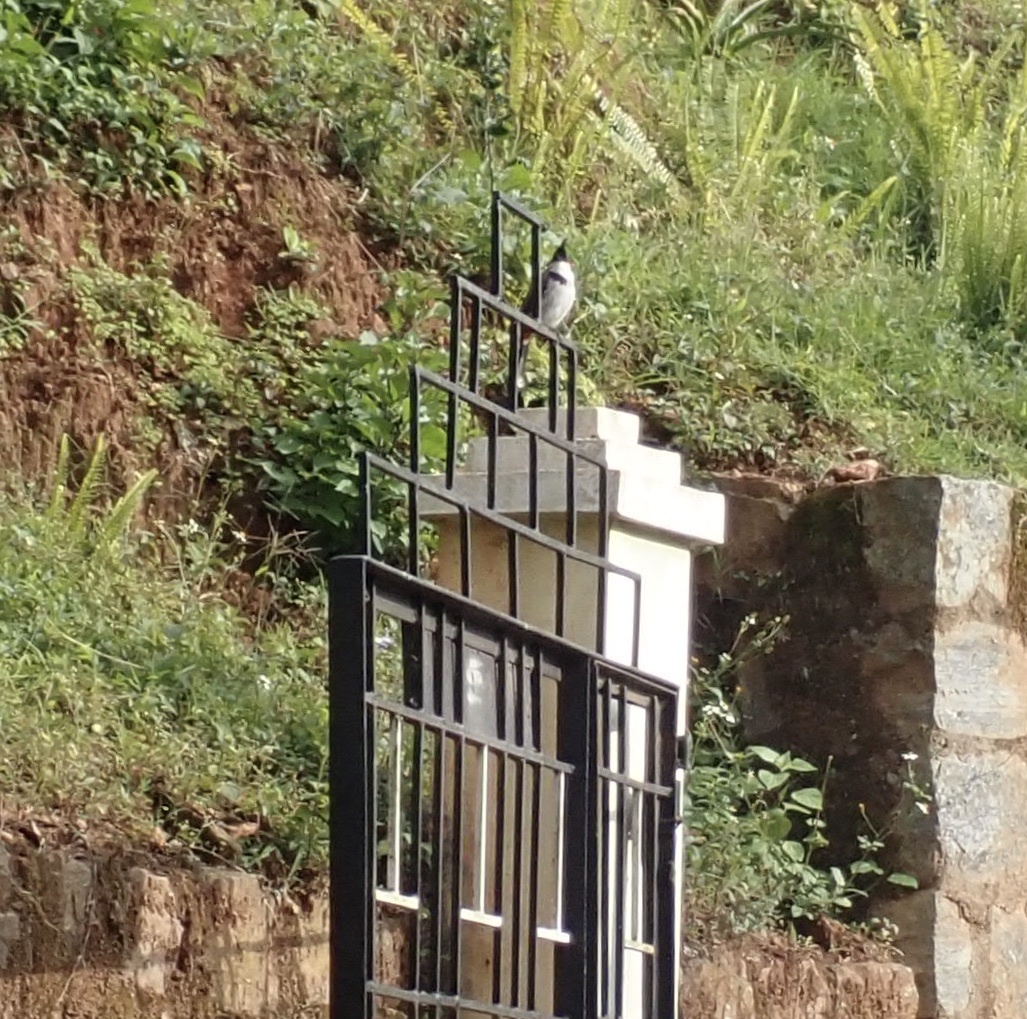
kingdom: Animalia
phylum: Chordata
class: Aves
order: Passeriformes
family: Pycnonotidae
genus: Pycnonotus
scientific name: Pycnonotus jocosus
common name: Red-whiskered bulbul
